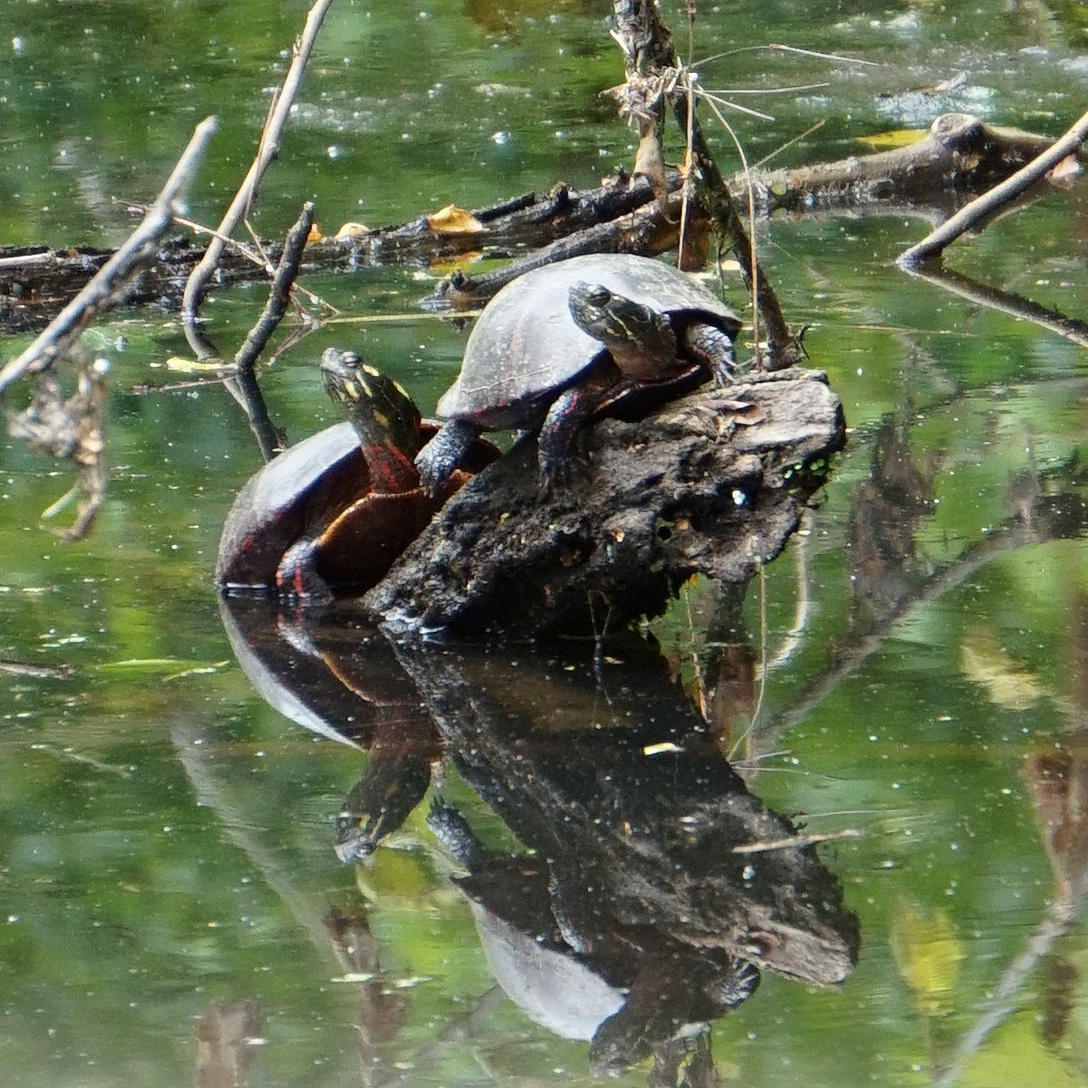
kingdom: Animalia
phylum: Chordata
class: Testudines
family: Emydidae
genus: Chrysemys
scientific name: Chrysemys picta
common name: Painted turtle
